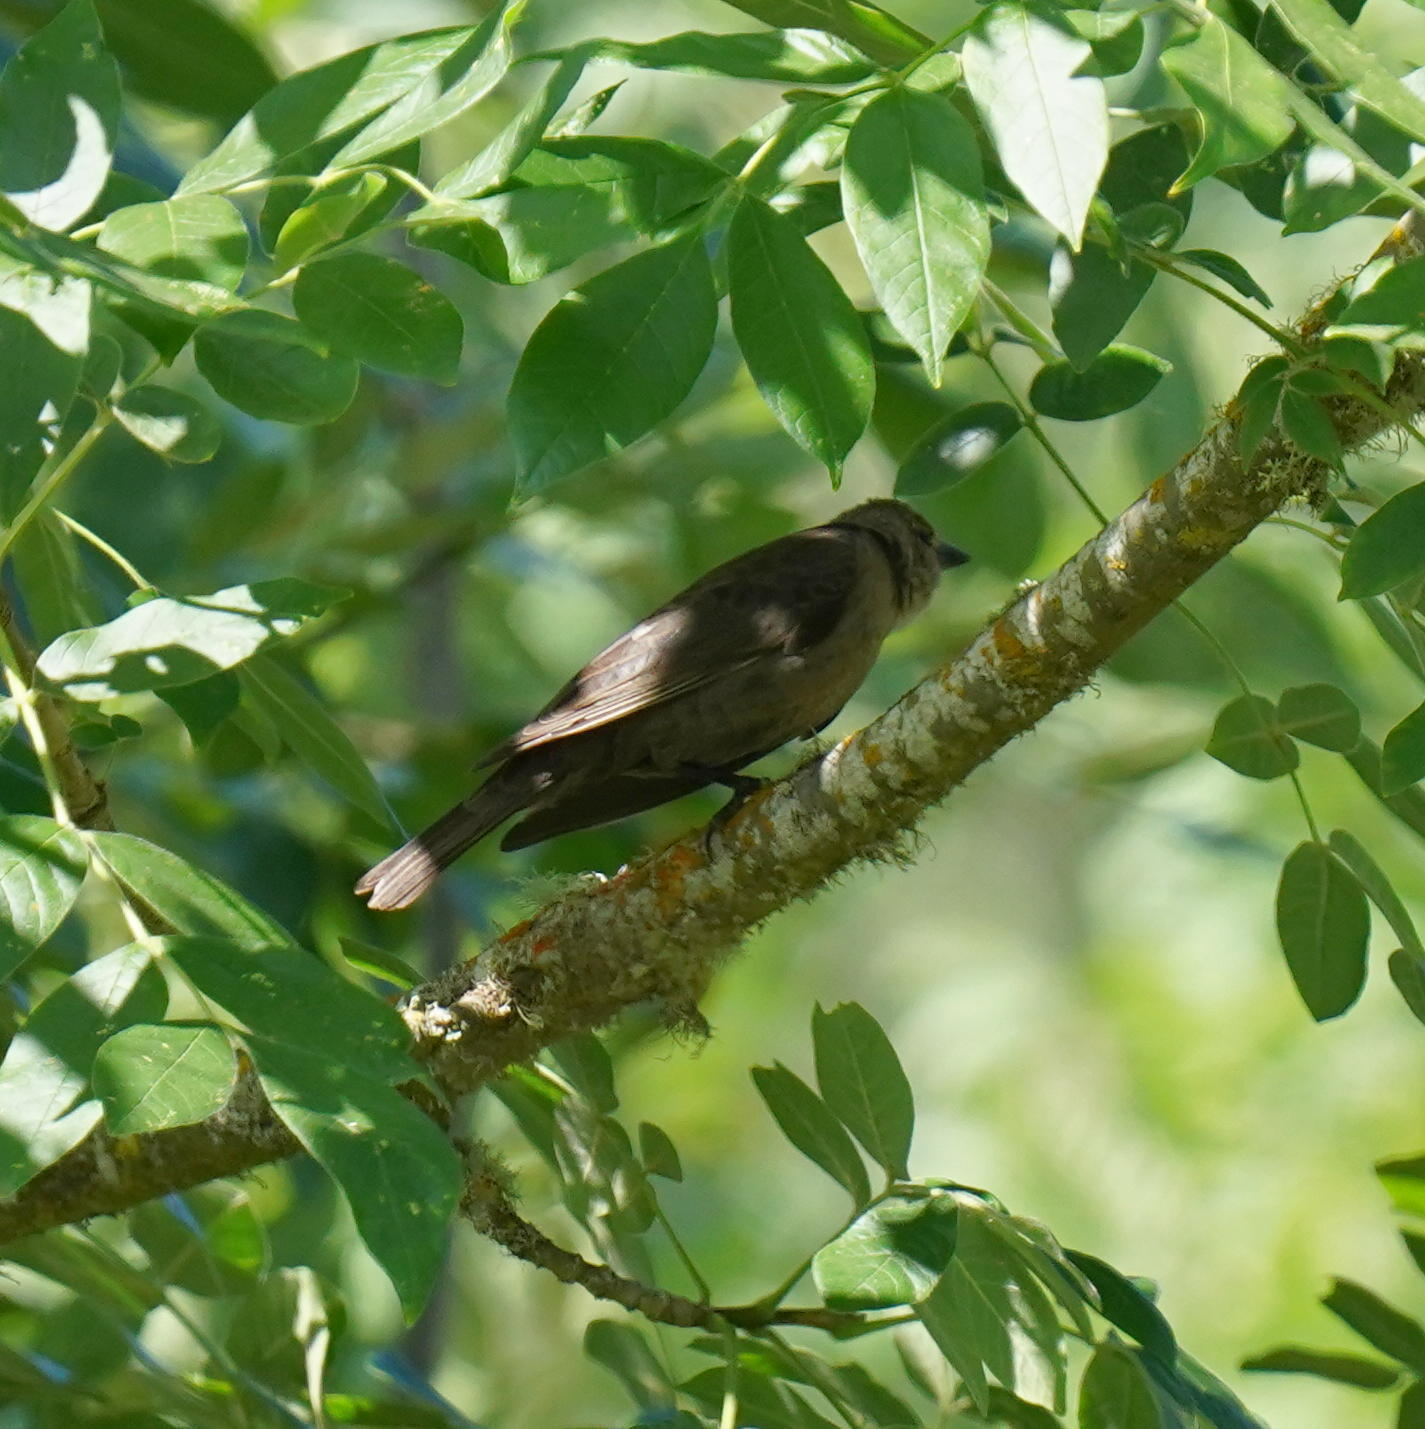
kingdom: Animalia
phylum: Chordata
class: Aves
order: Passeriformes
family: Icteridae
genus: Molothrus
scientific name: Molothrus ater
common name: Brown-headed cowbird
